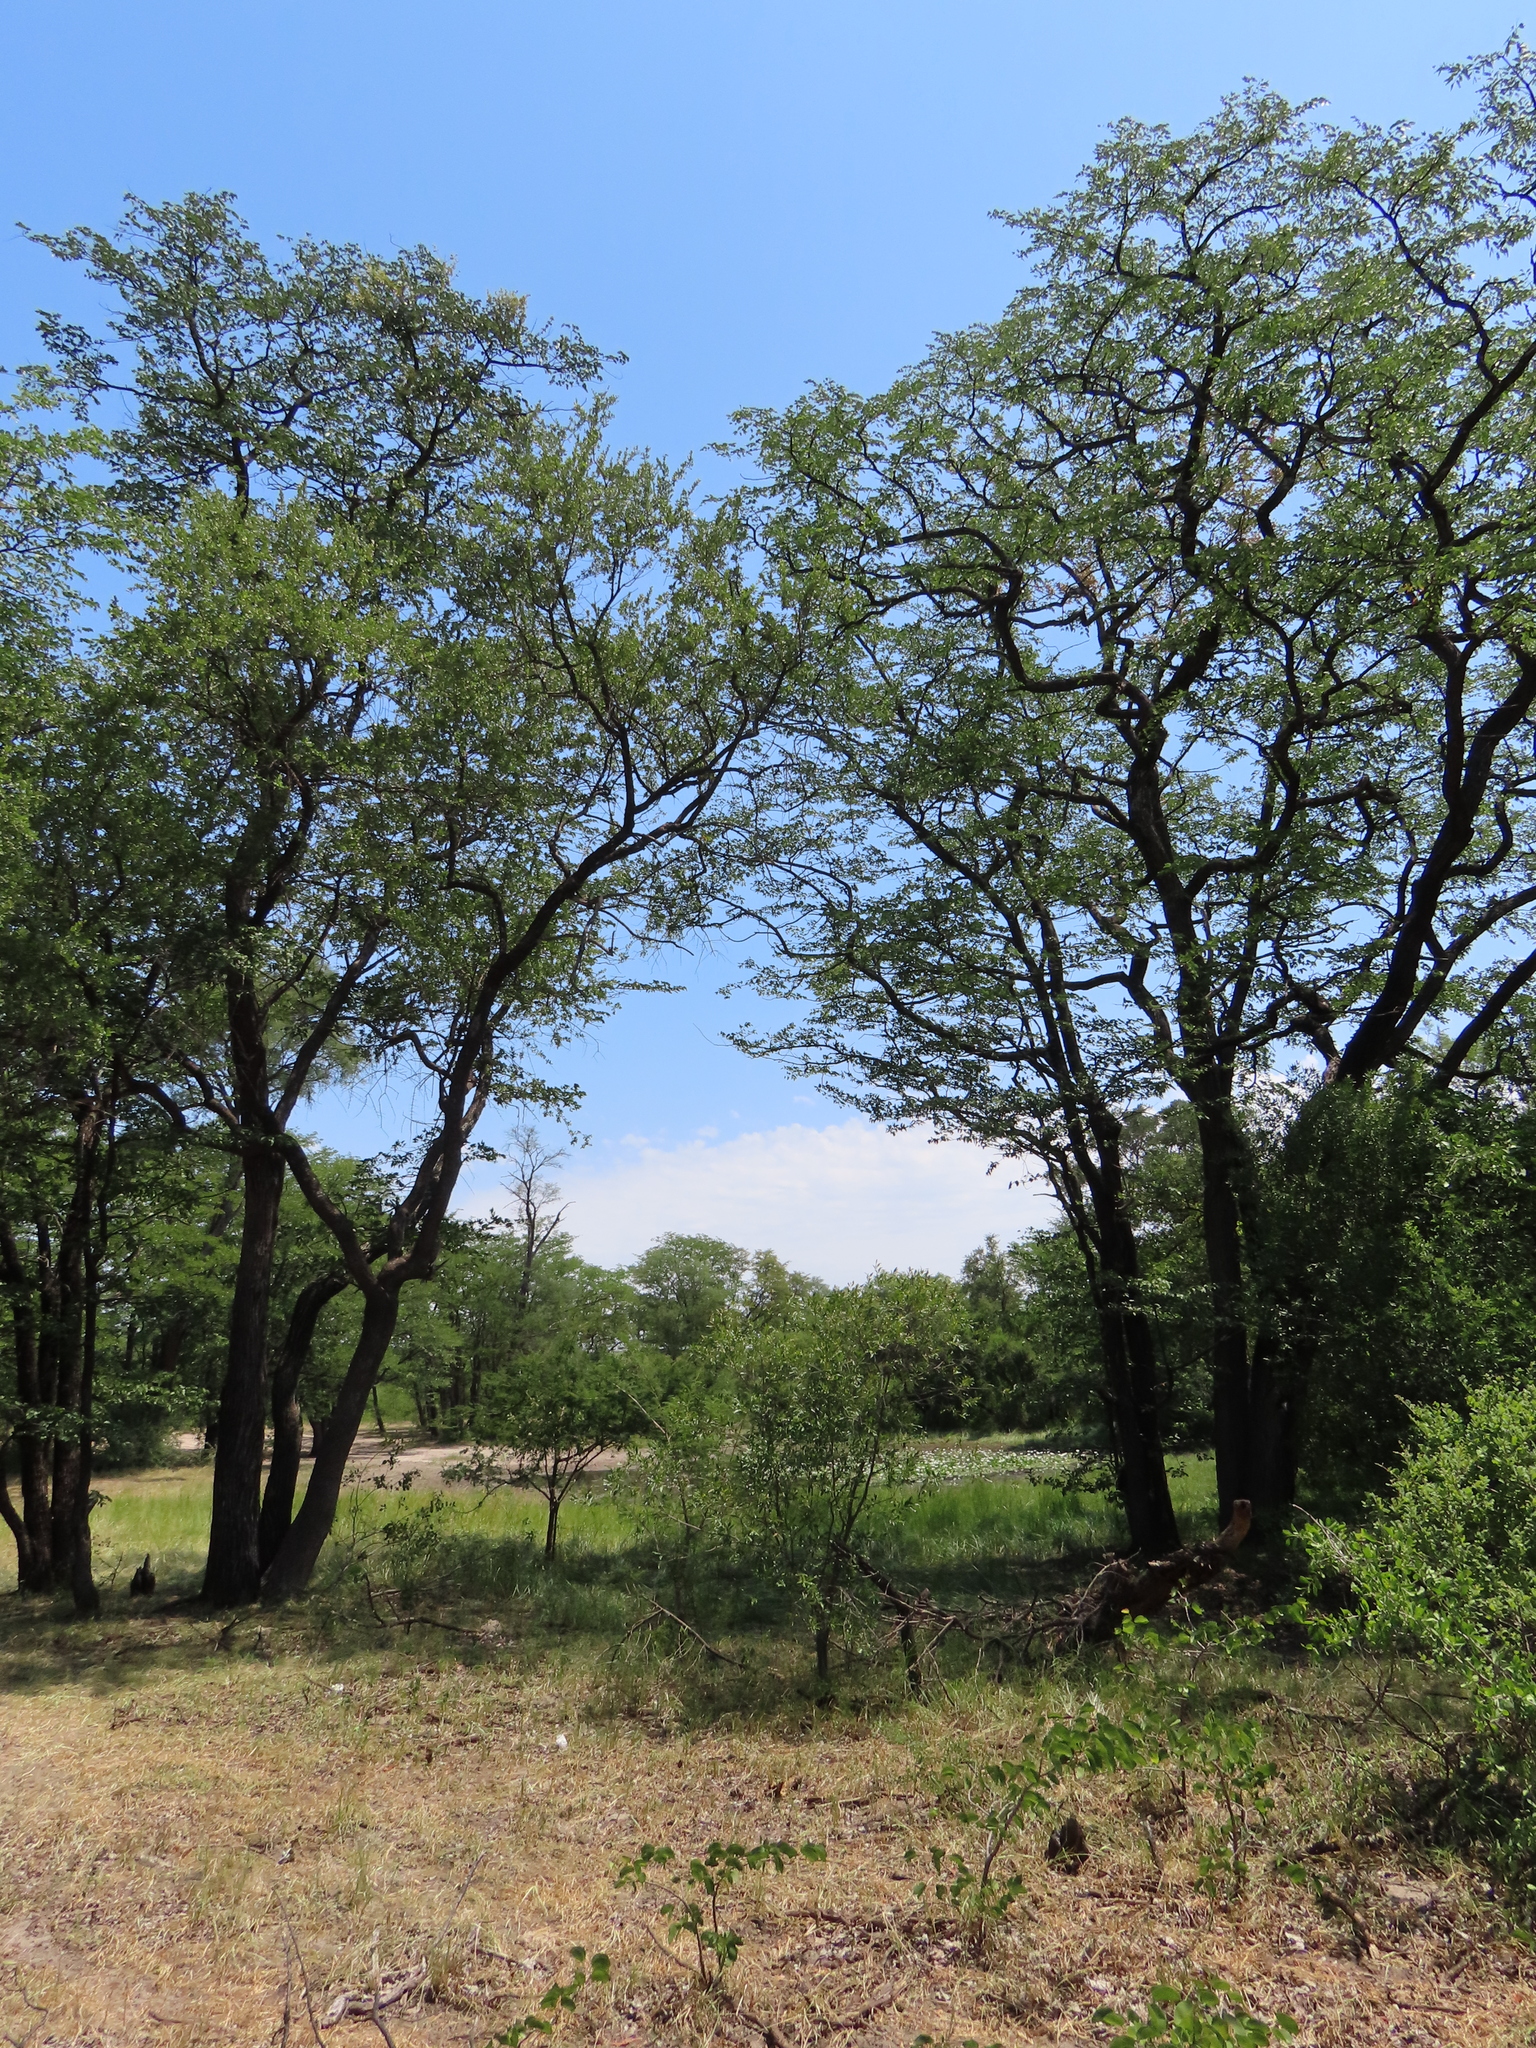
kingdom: Plantae
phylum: Tracheophyta
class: Magnoliopsida
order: Fabales
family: Fabaceae
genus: Colophospermum
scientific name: Colophospermum mopane
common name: Mopane
